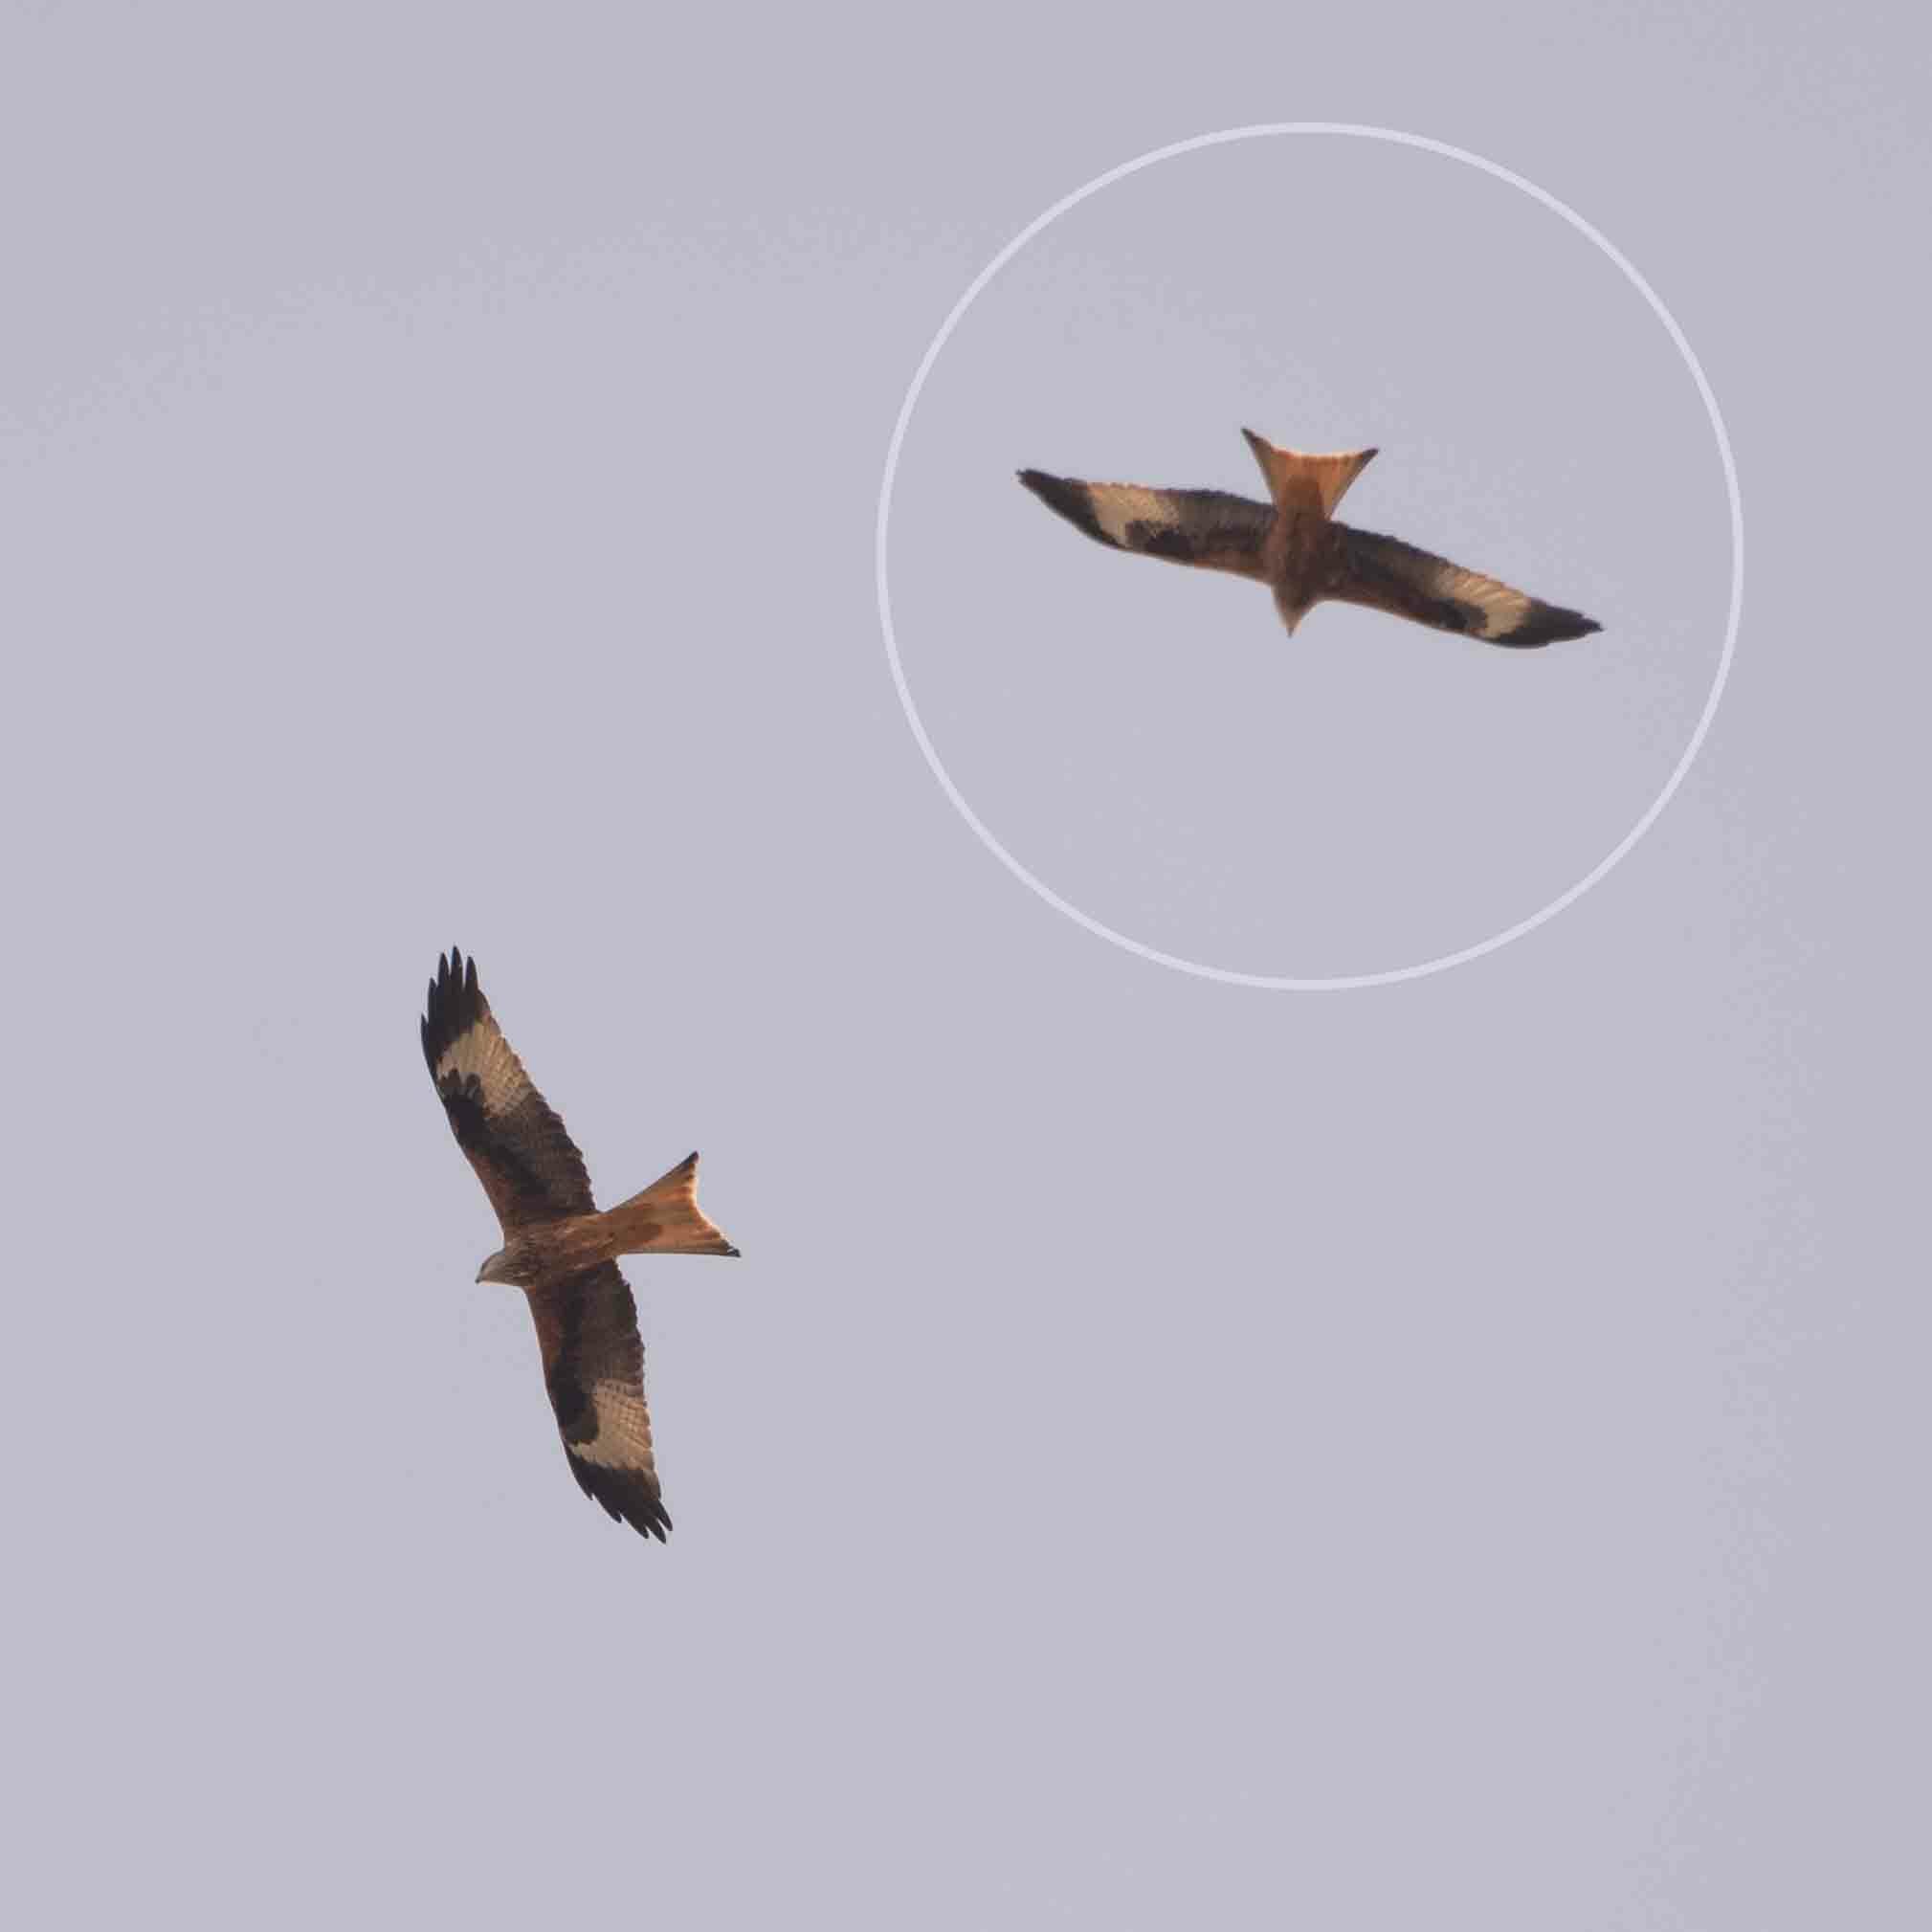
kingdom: Animalia
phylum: Chordata
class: Aves
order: Accipitriformes
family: Accipitridae
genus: Milvus
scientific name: Milvus milvus
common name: Red kite
